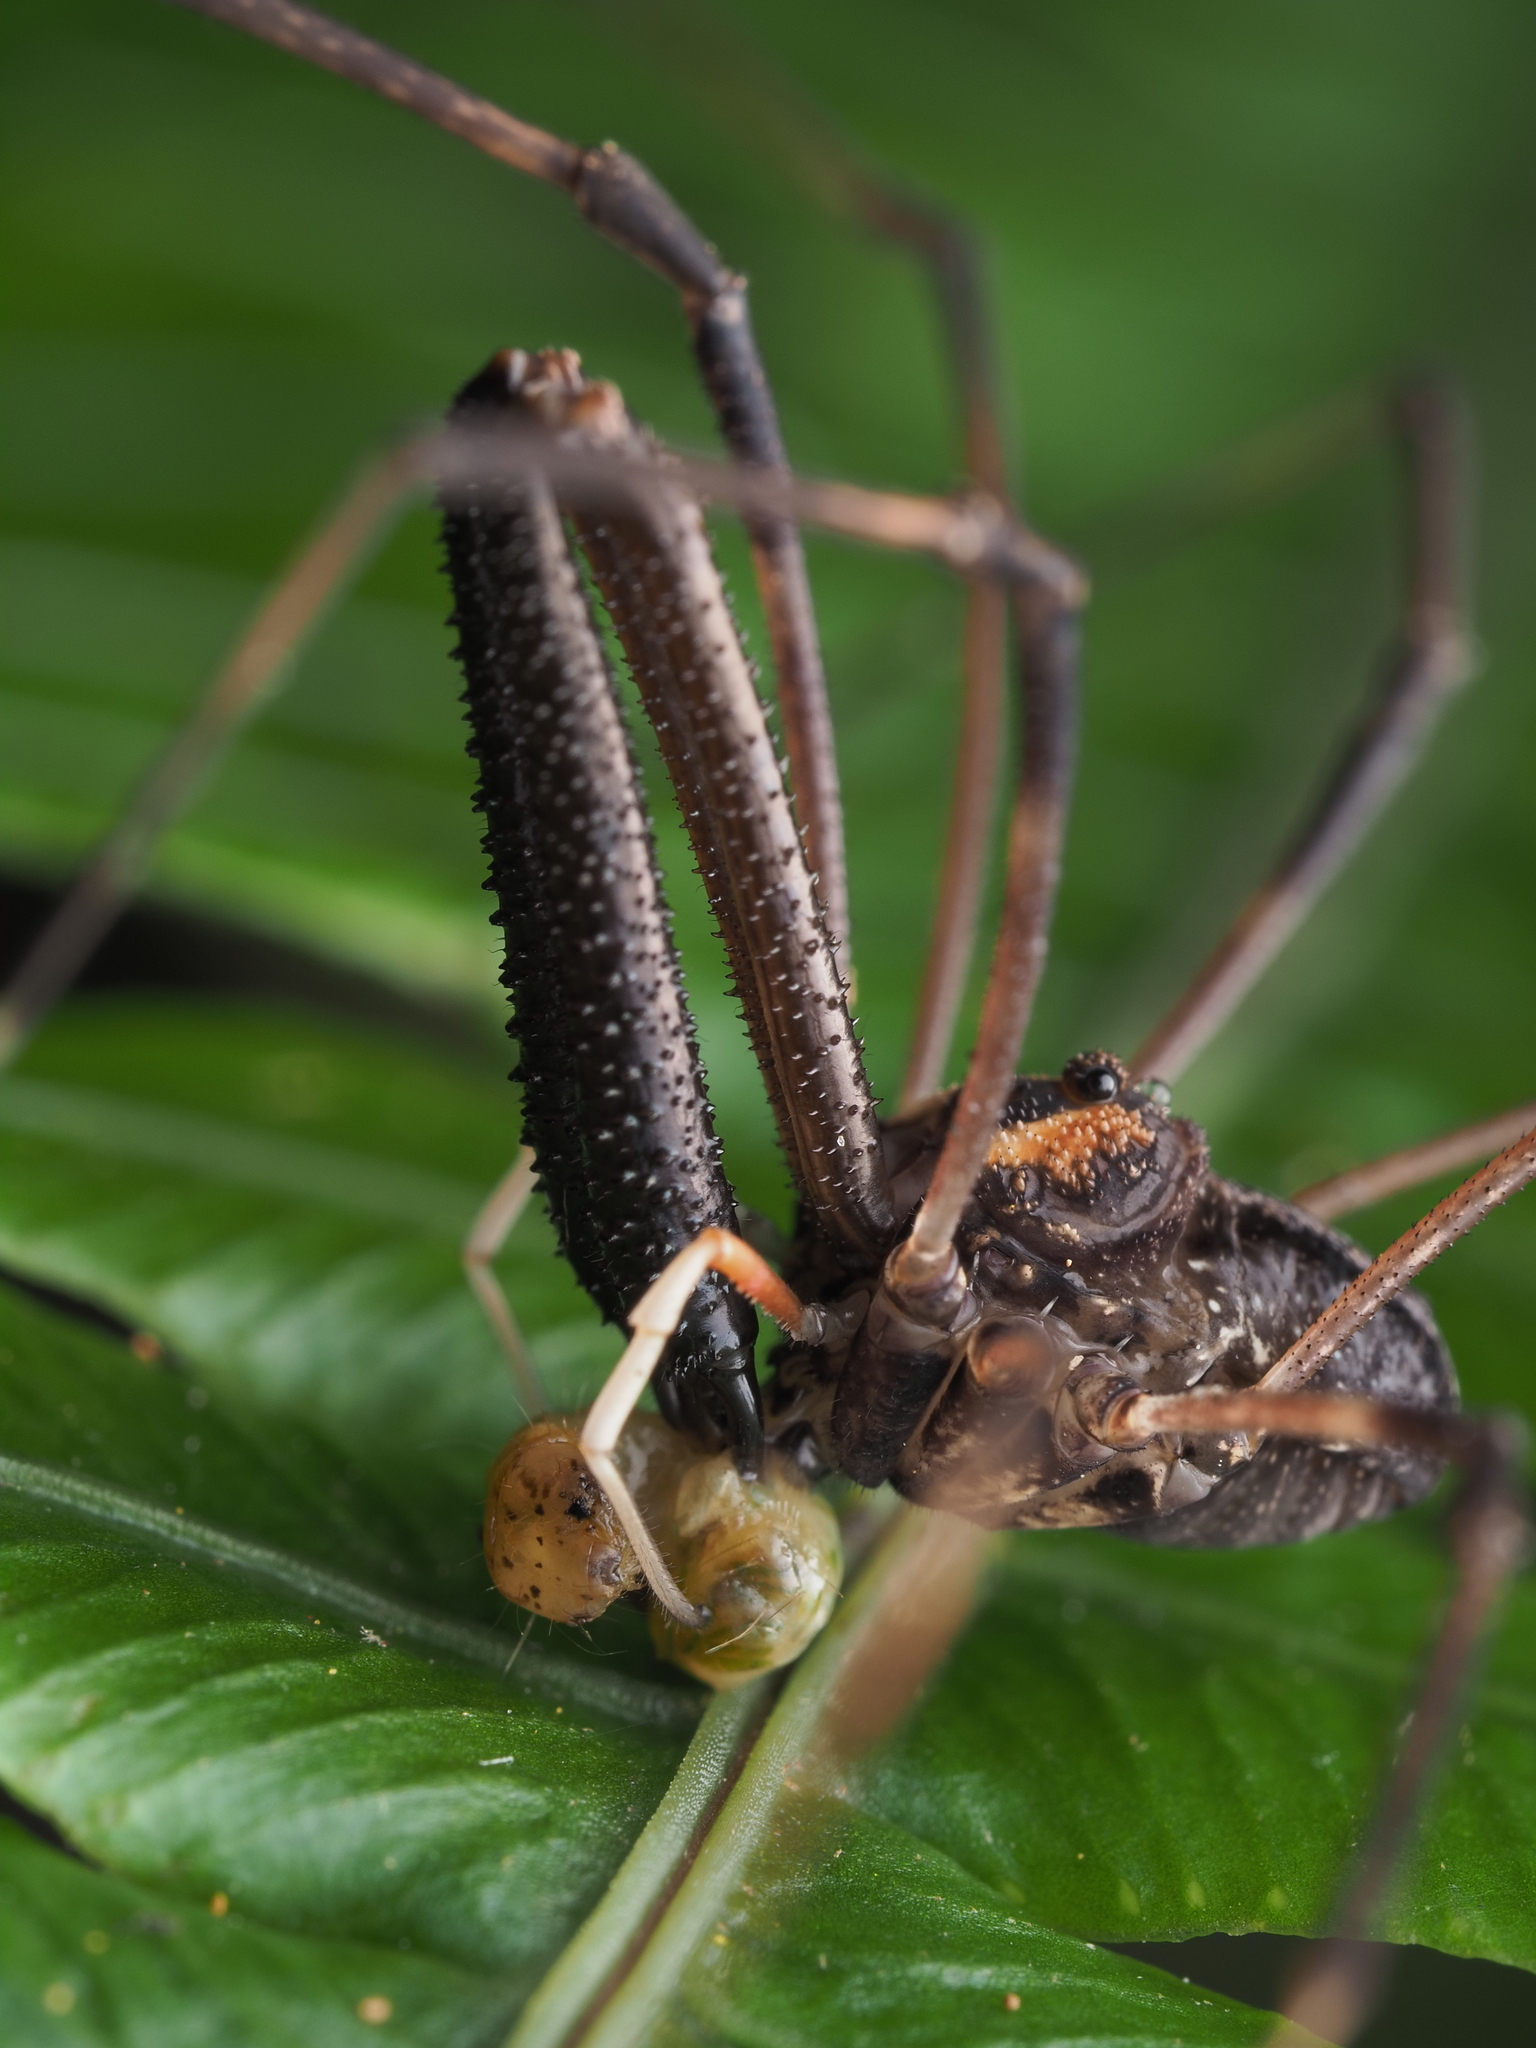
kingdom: Animalia
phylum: Arthropoda
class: Arachnida
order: Opiliones
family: Neopilionidae
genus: Forsteropsalis
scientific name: Forsteropsalis inconstans
